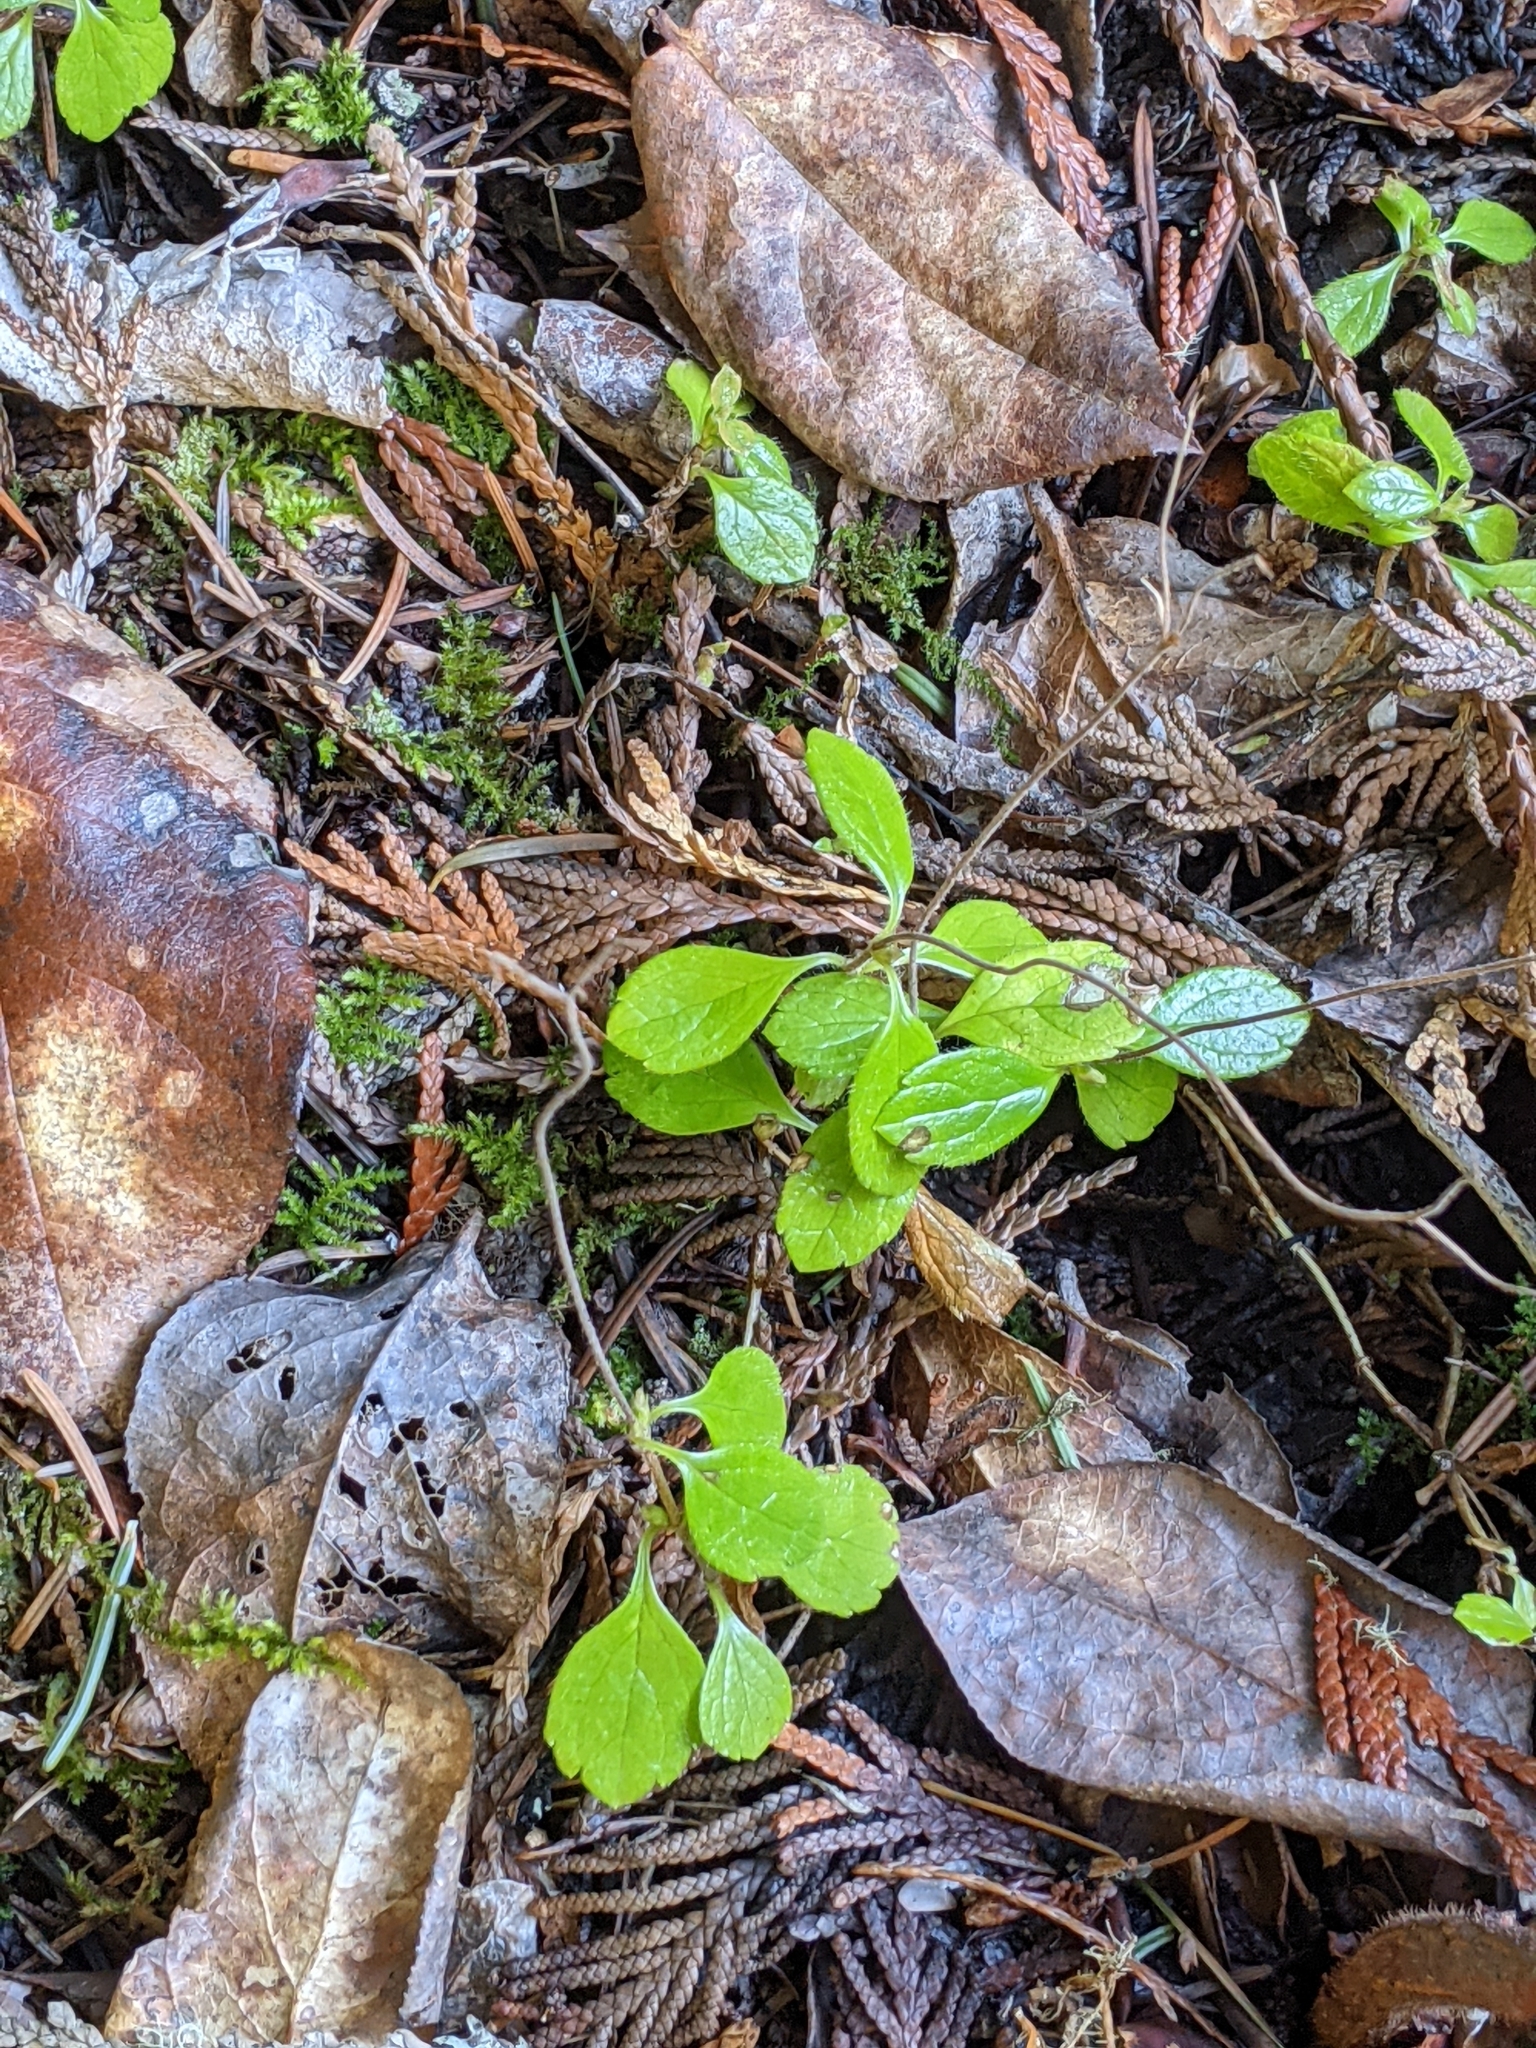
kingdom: Plantae
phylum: Tracheophyta
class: Magnoliopsida
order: Dipsacales
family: Caprifoliaceae
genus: Linnaea
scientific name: Linnaea borealis
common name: Twinflower
